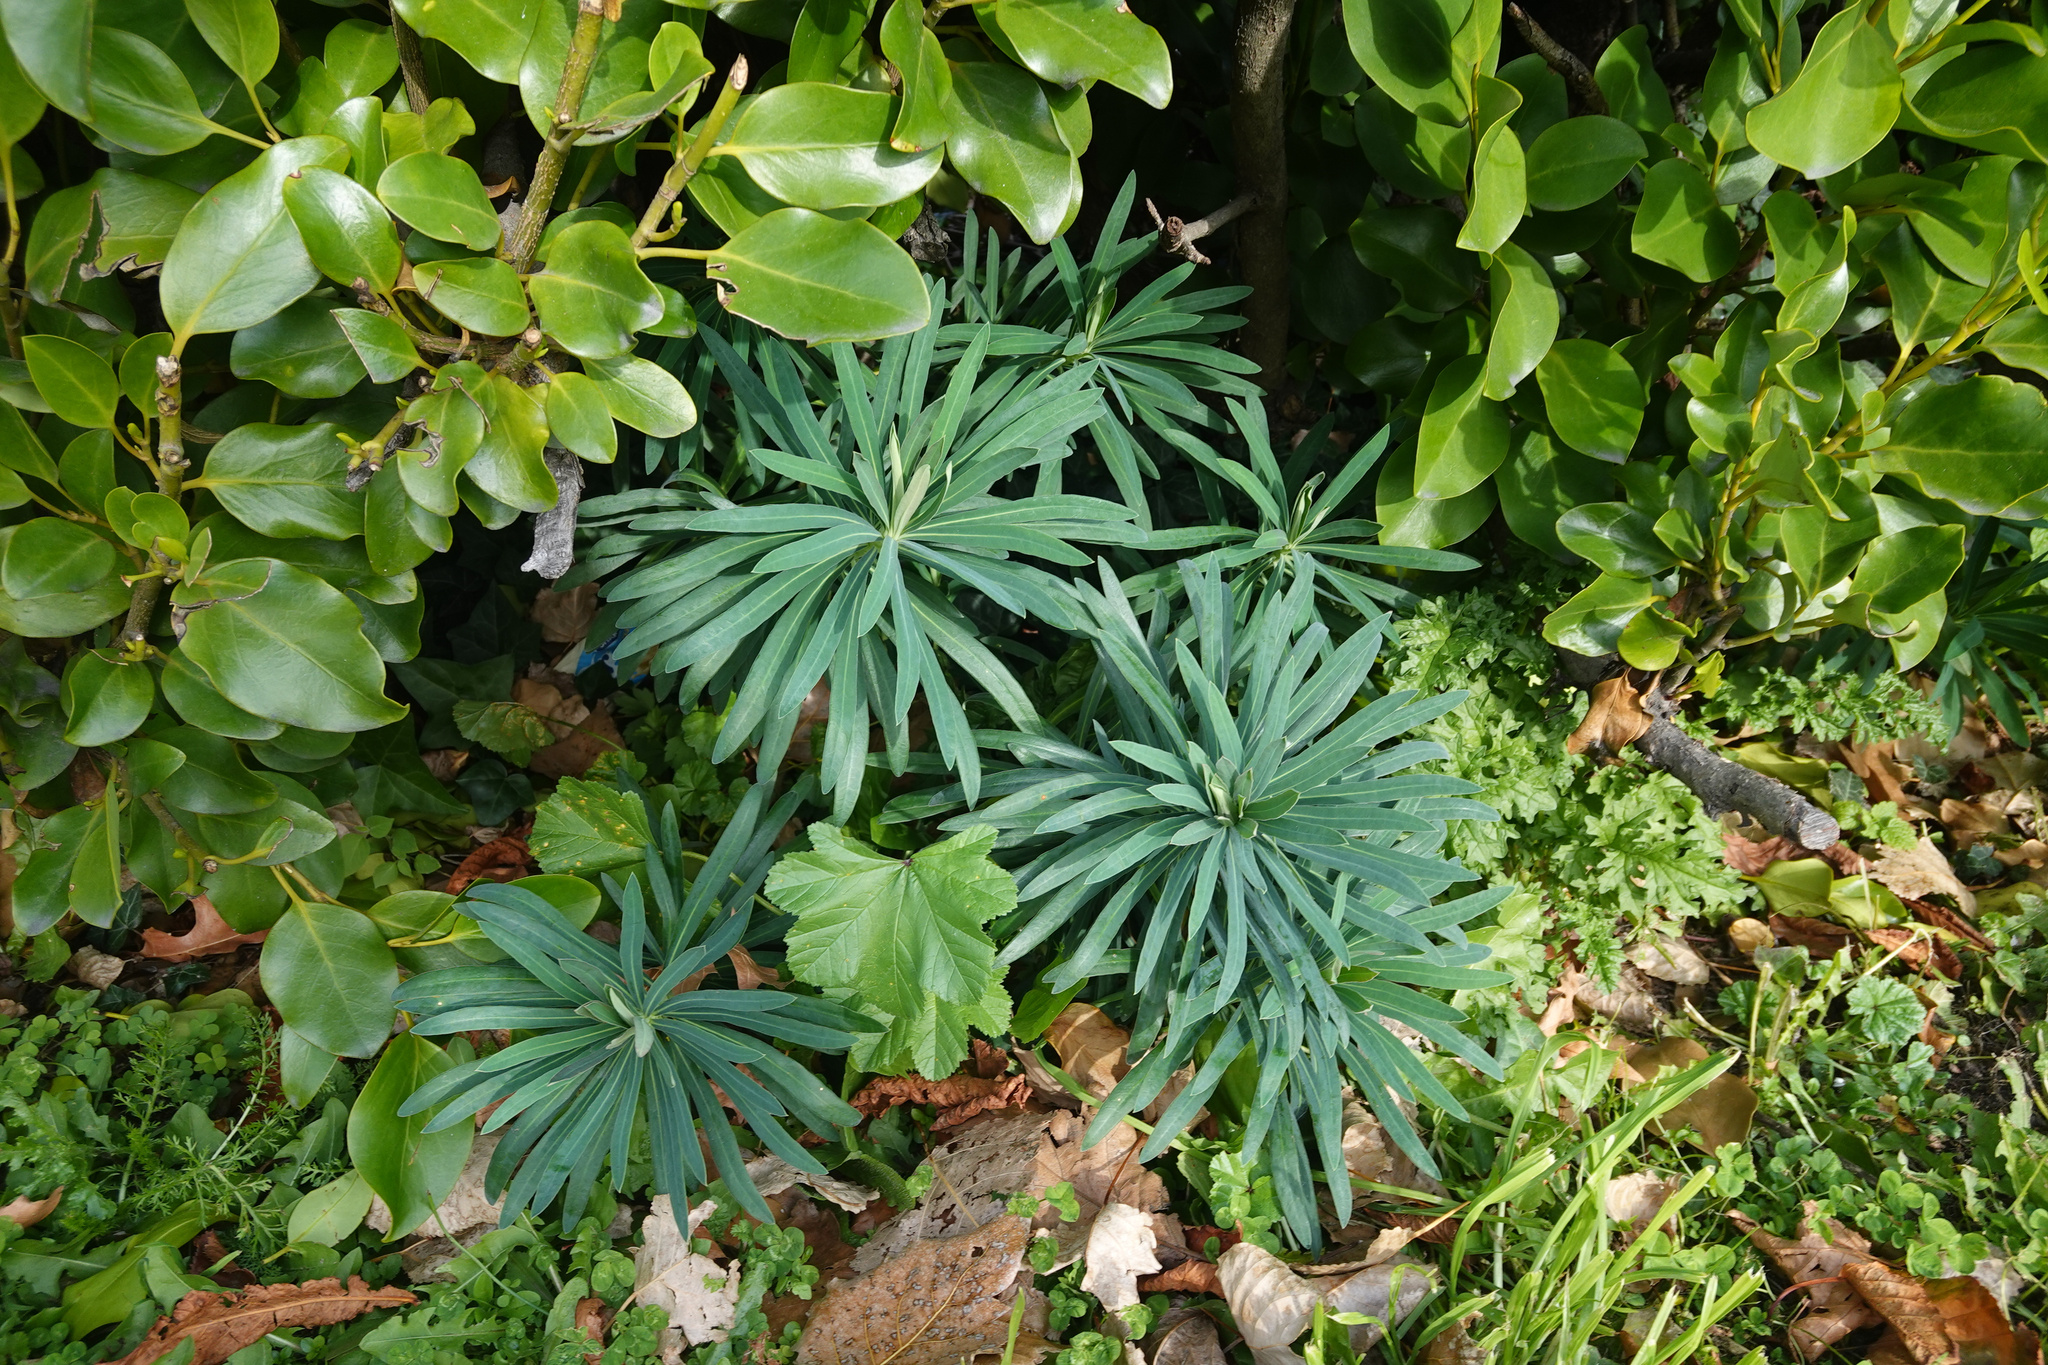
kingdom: Plantae
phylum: Tracheophyta
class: Magnoliopsida
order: Malpighiales
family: Euphorbiaceae
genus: Euphorbia
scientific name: Euphorbia characias
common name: Mediterranean spurge
